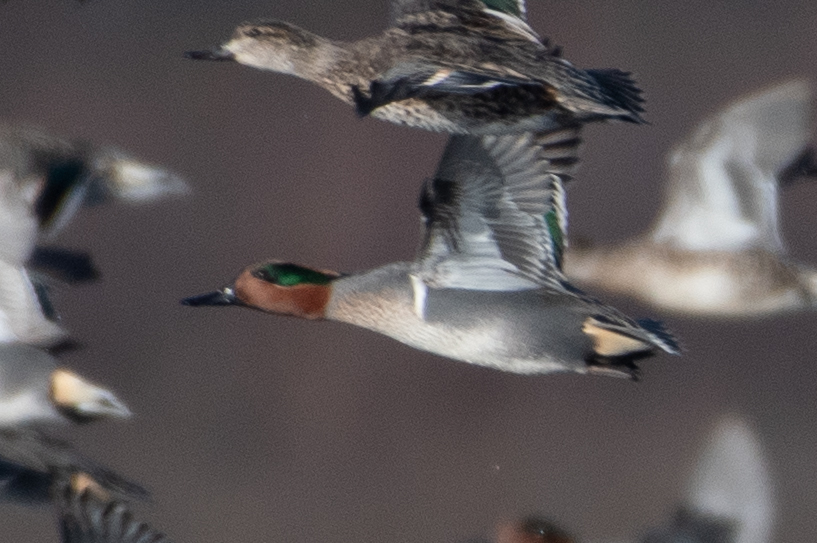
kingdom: Animalia
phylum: Chordata
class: Aves
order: Anseriformes
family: Anatidae
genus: Anas
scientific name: Anas crecca
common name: Eurasian teal
